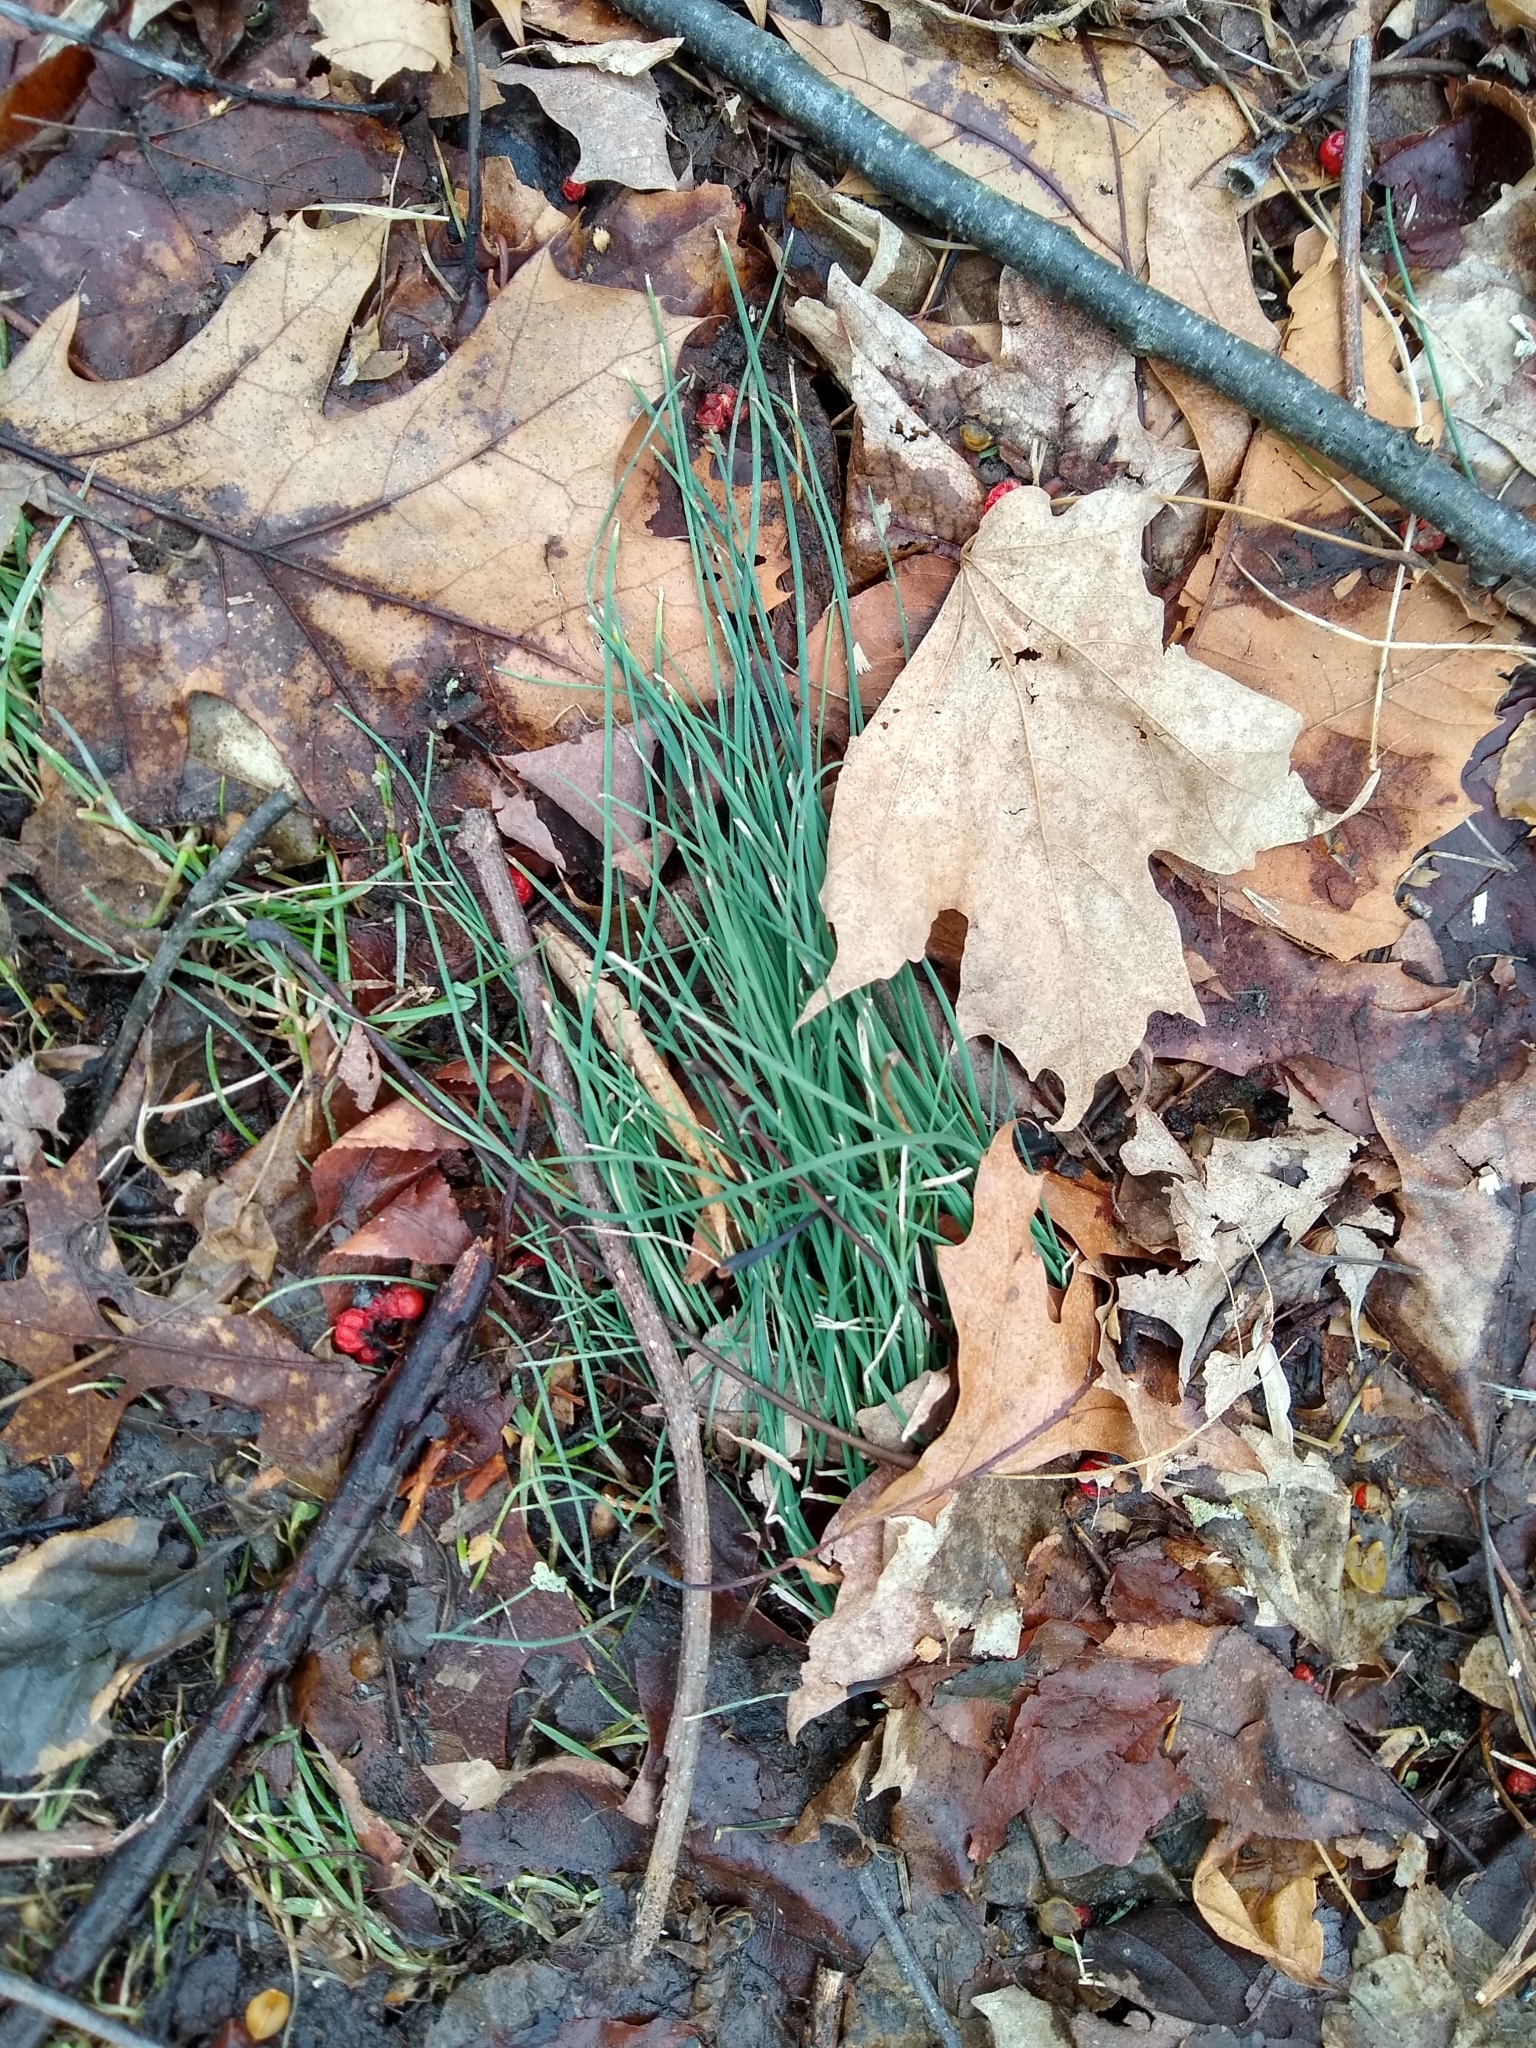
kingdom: Plantae
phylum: Tracheophyta
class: Liliopsida
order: Asparagales
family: Amaryllidaceae
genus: Allium
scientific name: Allium vineale
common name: Crow garlic
